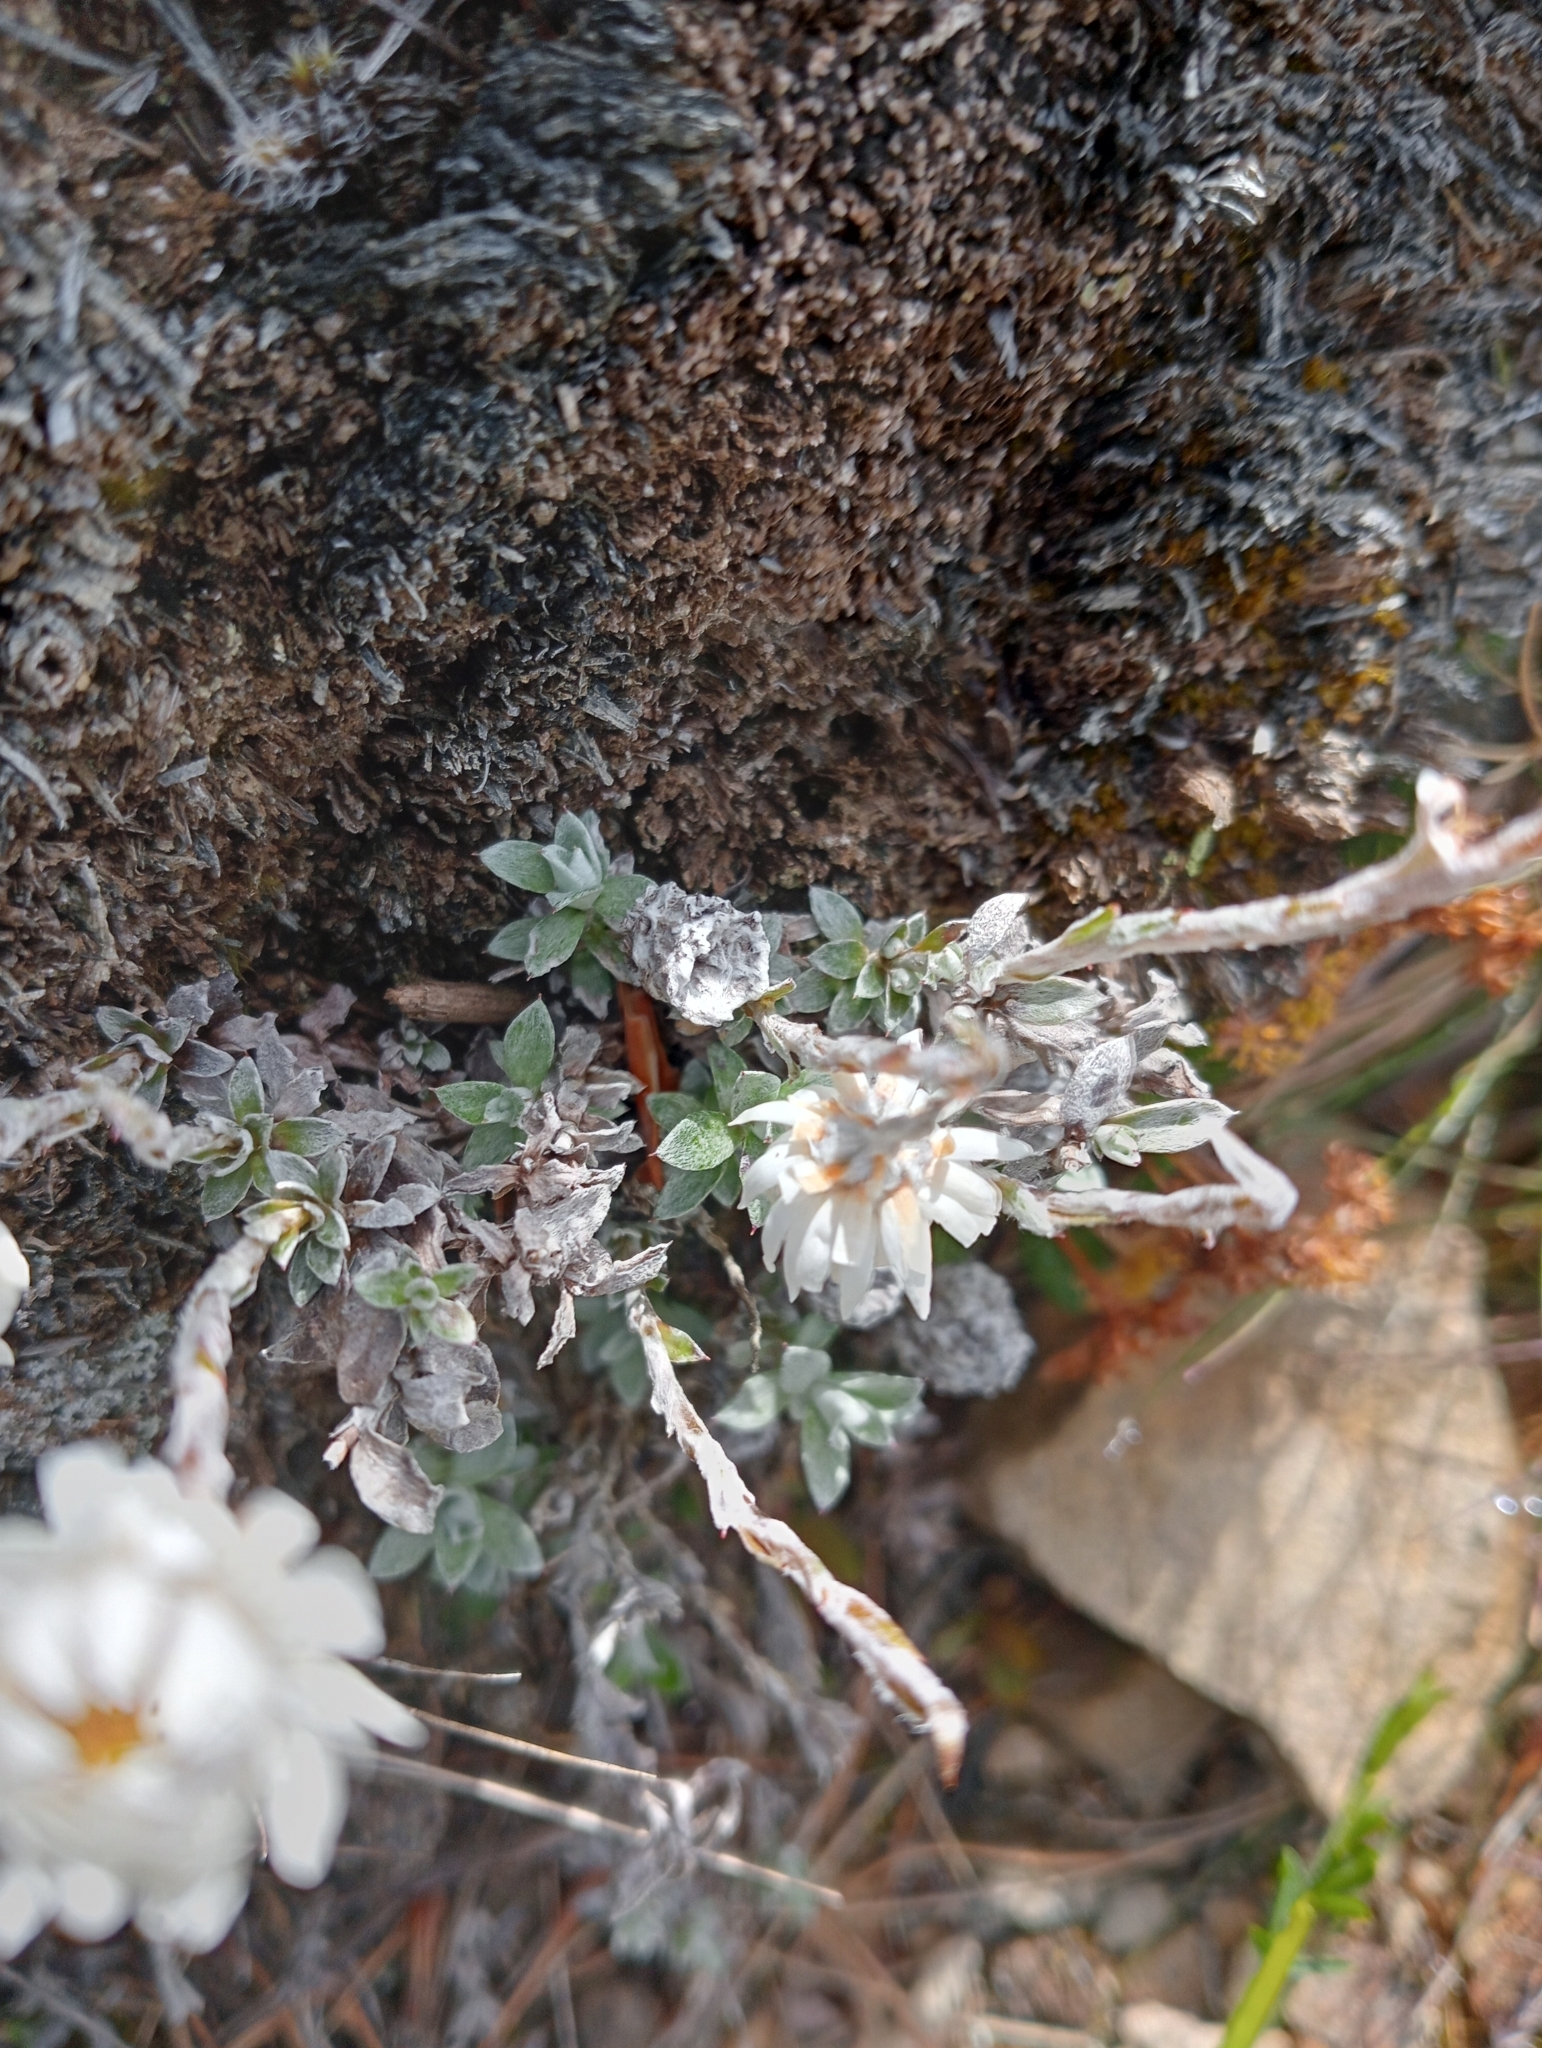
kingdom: Plantae
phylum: Tracheophyta
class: Magnoliopsida
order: Asterales
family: Asteraceae
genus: Anaphalioides
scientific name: Anaphalioides bellidioides
